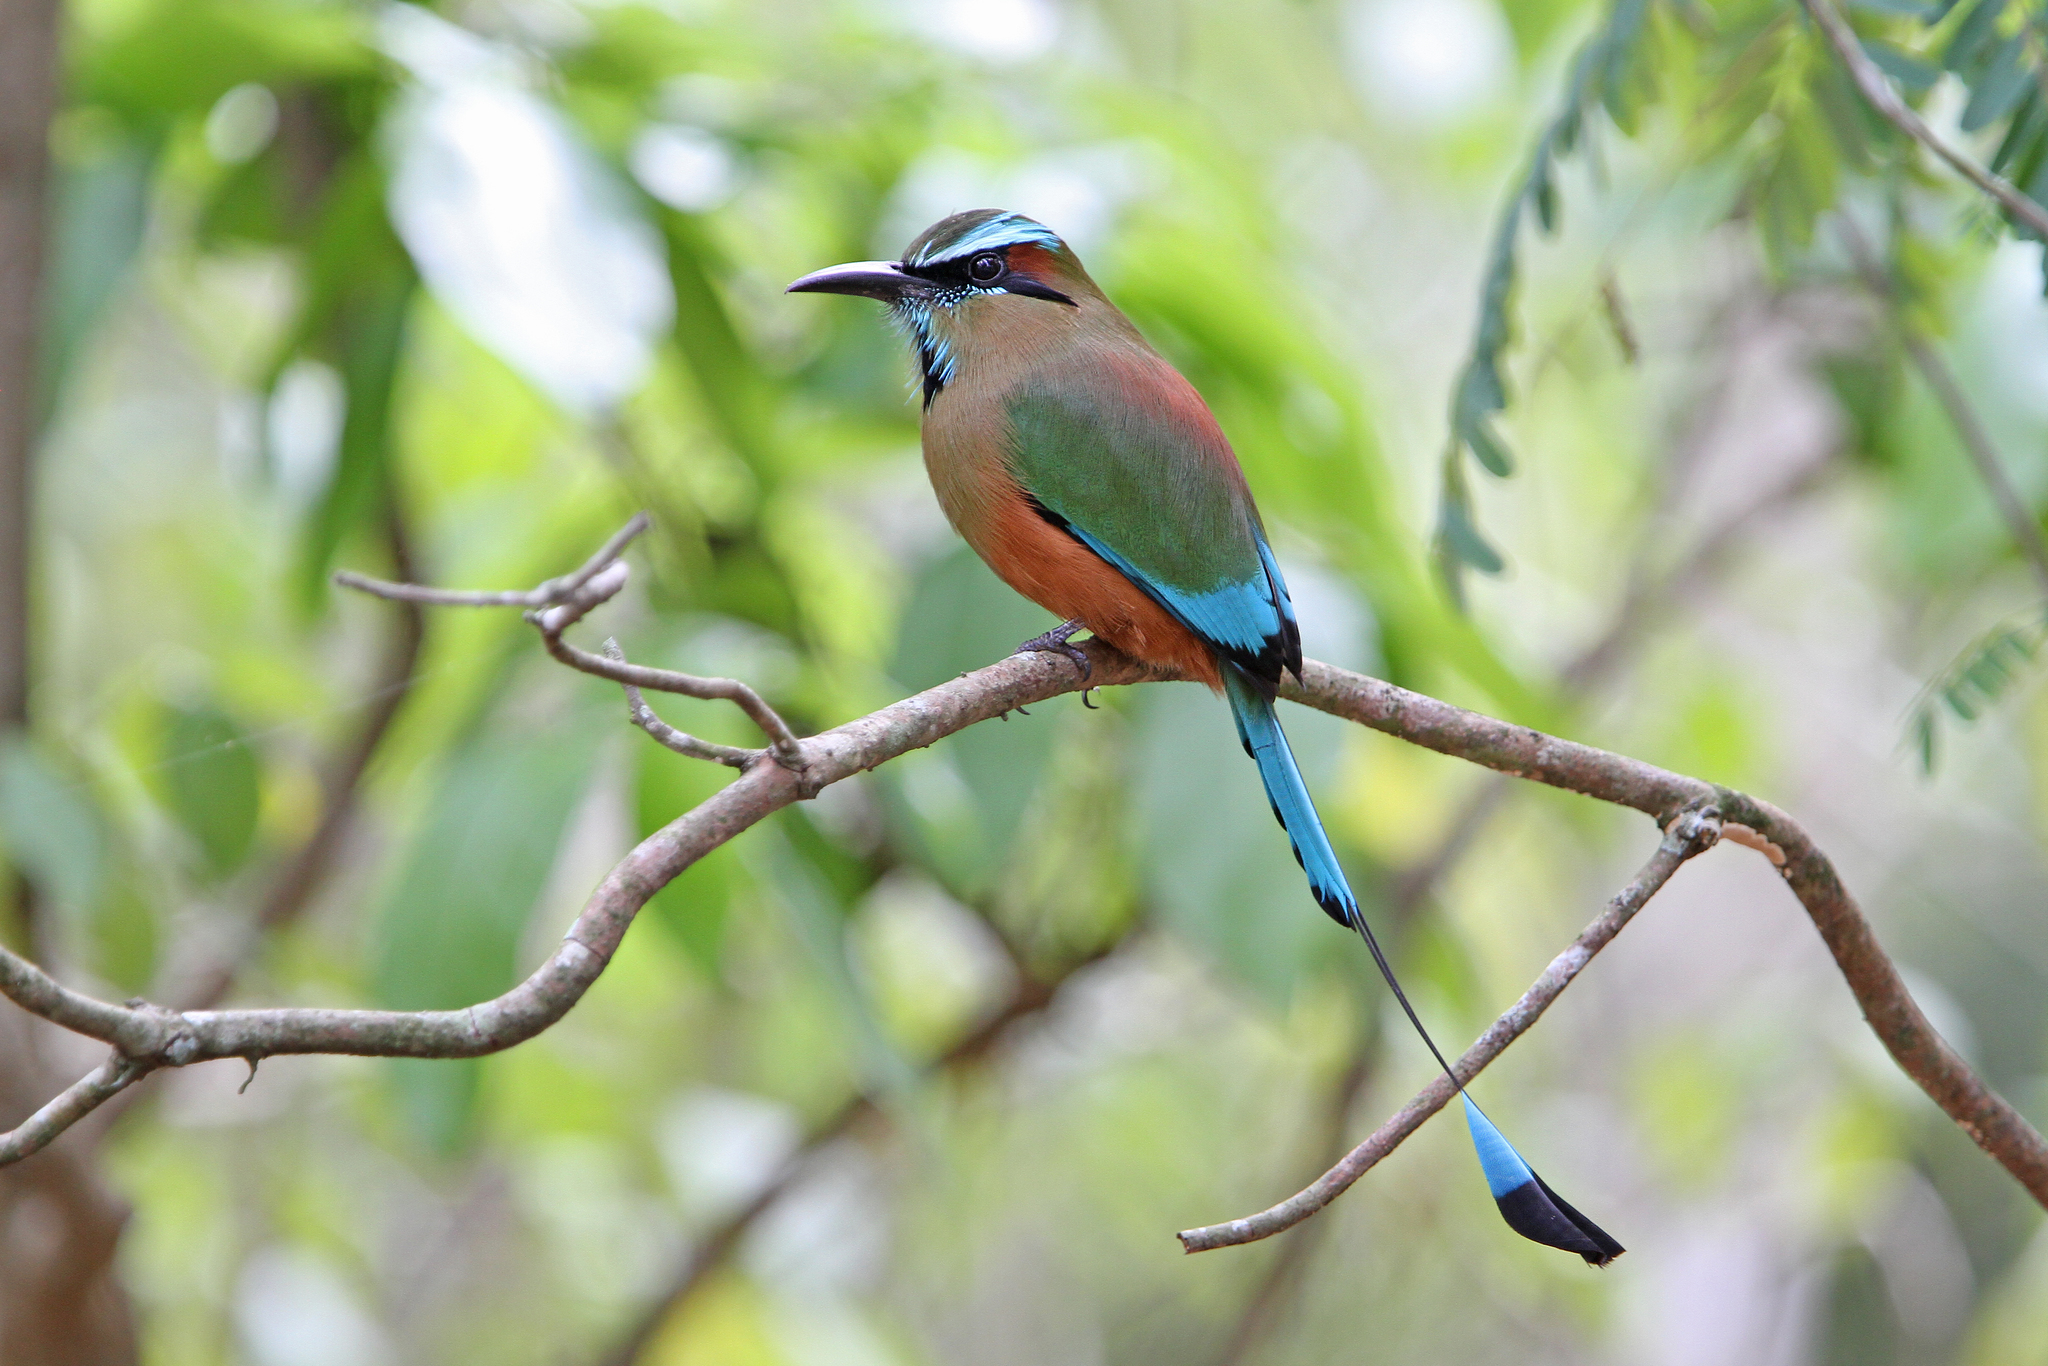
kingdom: Animalia
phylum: Chordata
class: Aves
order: Coraciiformes
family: Momotidae
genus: Eumomota
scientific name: Eumomota superciliosa
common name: Turquoise-browed motmot
